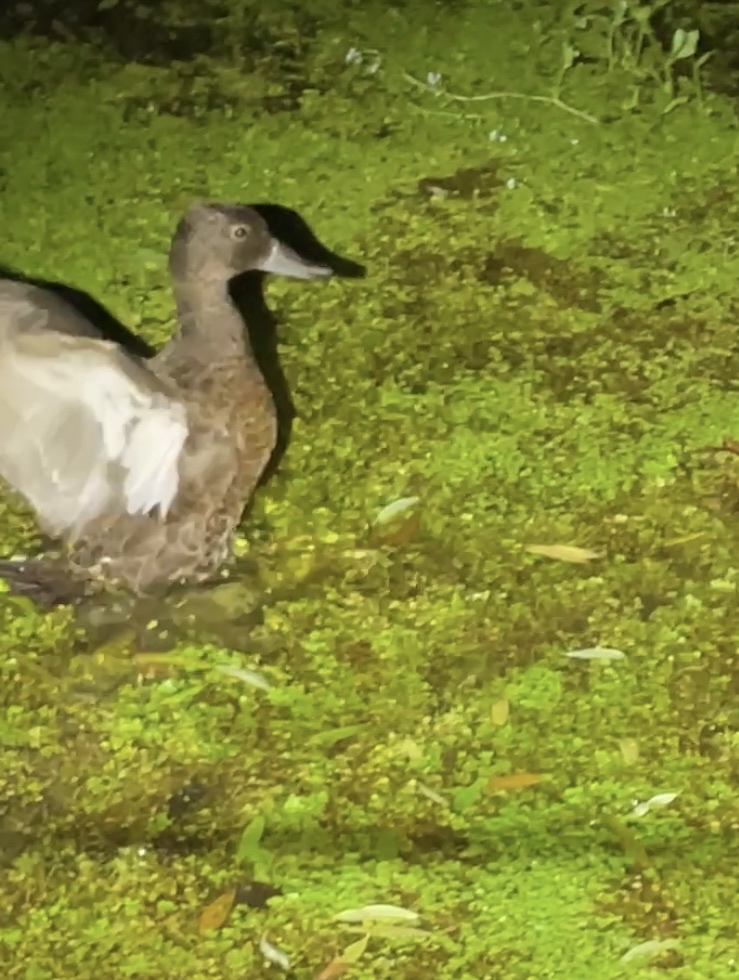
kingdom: Animalia
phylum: Chordata
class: Aves
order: Anseriformes
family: Anatidae
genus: Anas
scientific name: Anas chlorotis
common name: Brown teal
